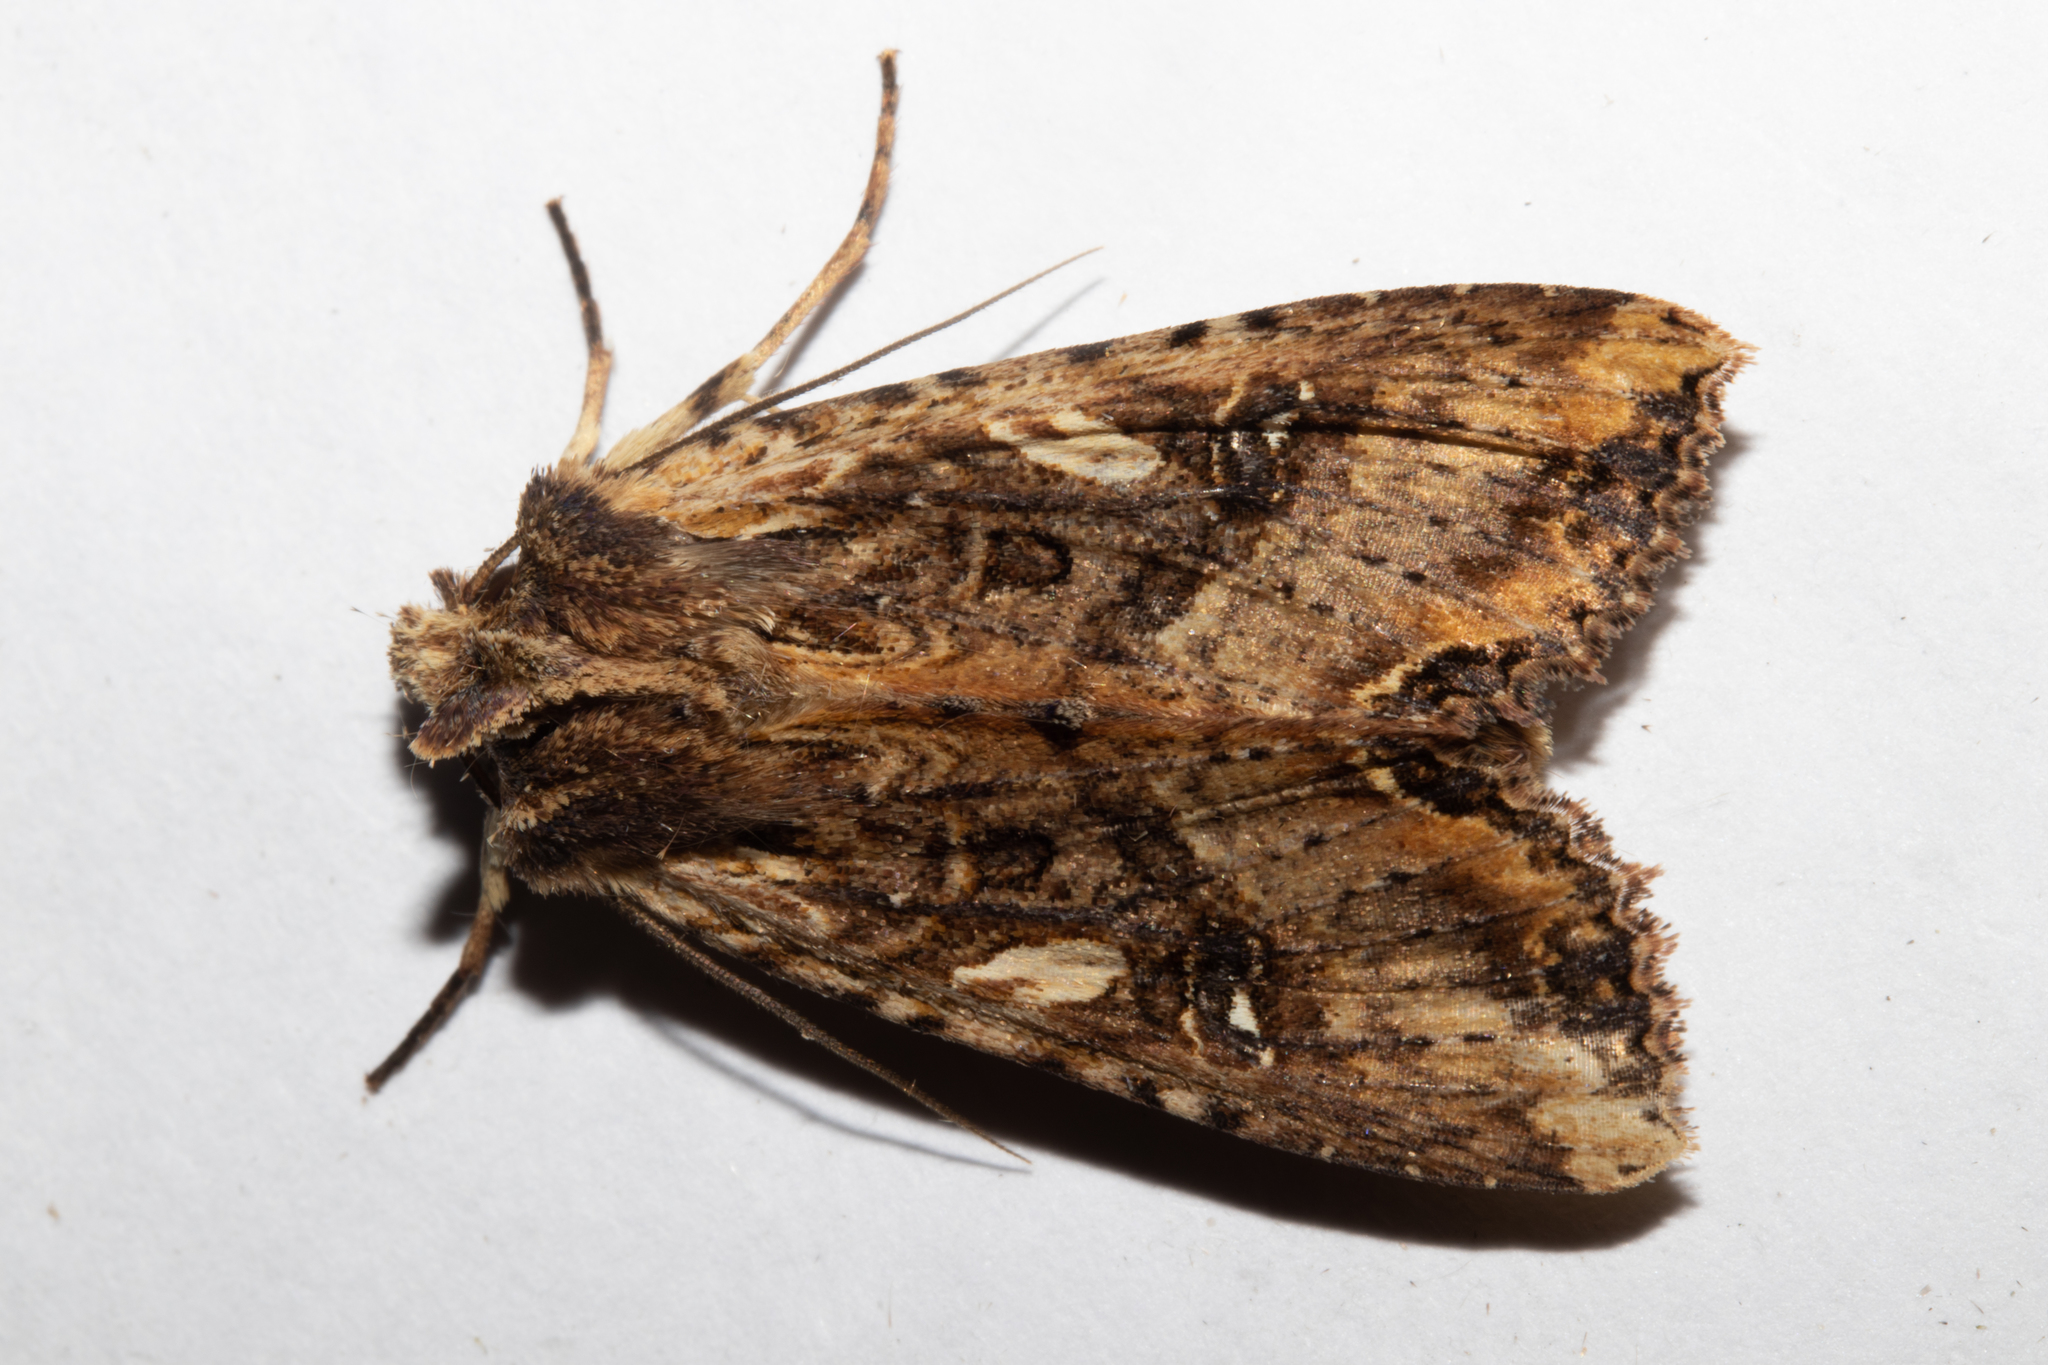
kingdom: Animalia
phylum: Arthropoda
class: Insecta
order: Lepidoptera
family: Noctuidae
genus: Meterana
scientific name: Meterana stipata
